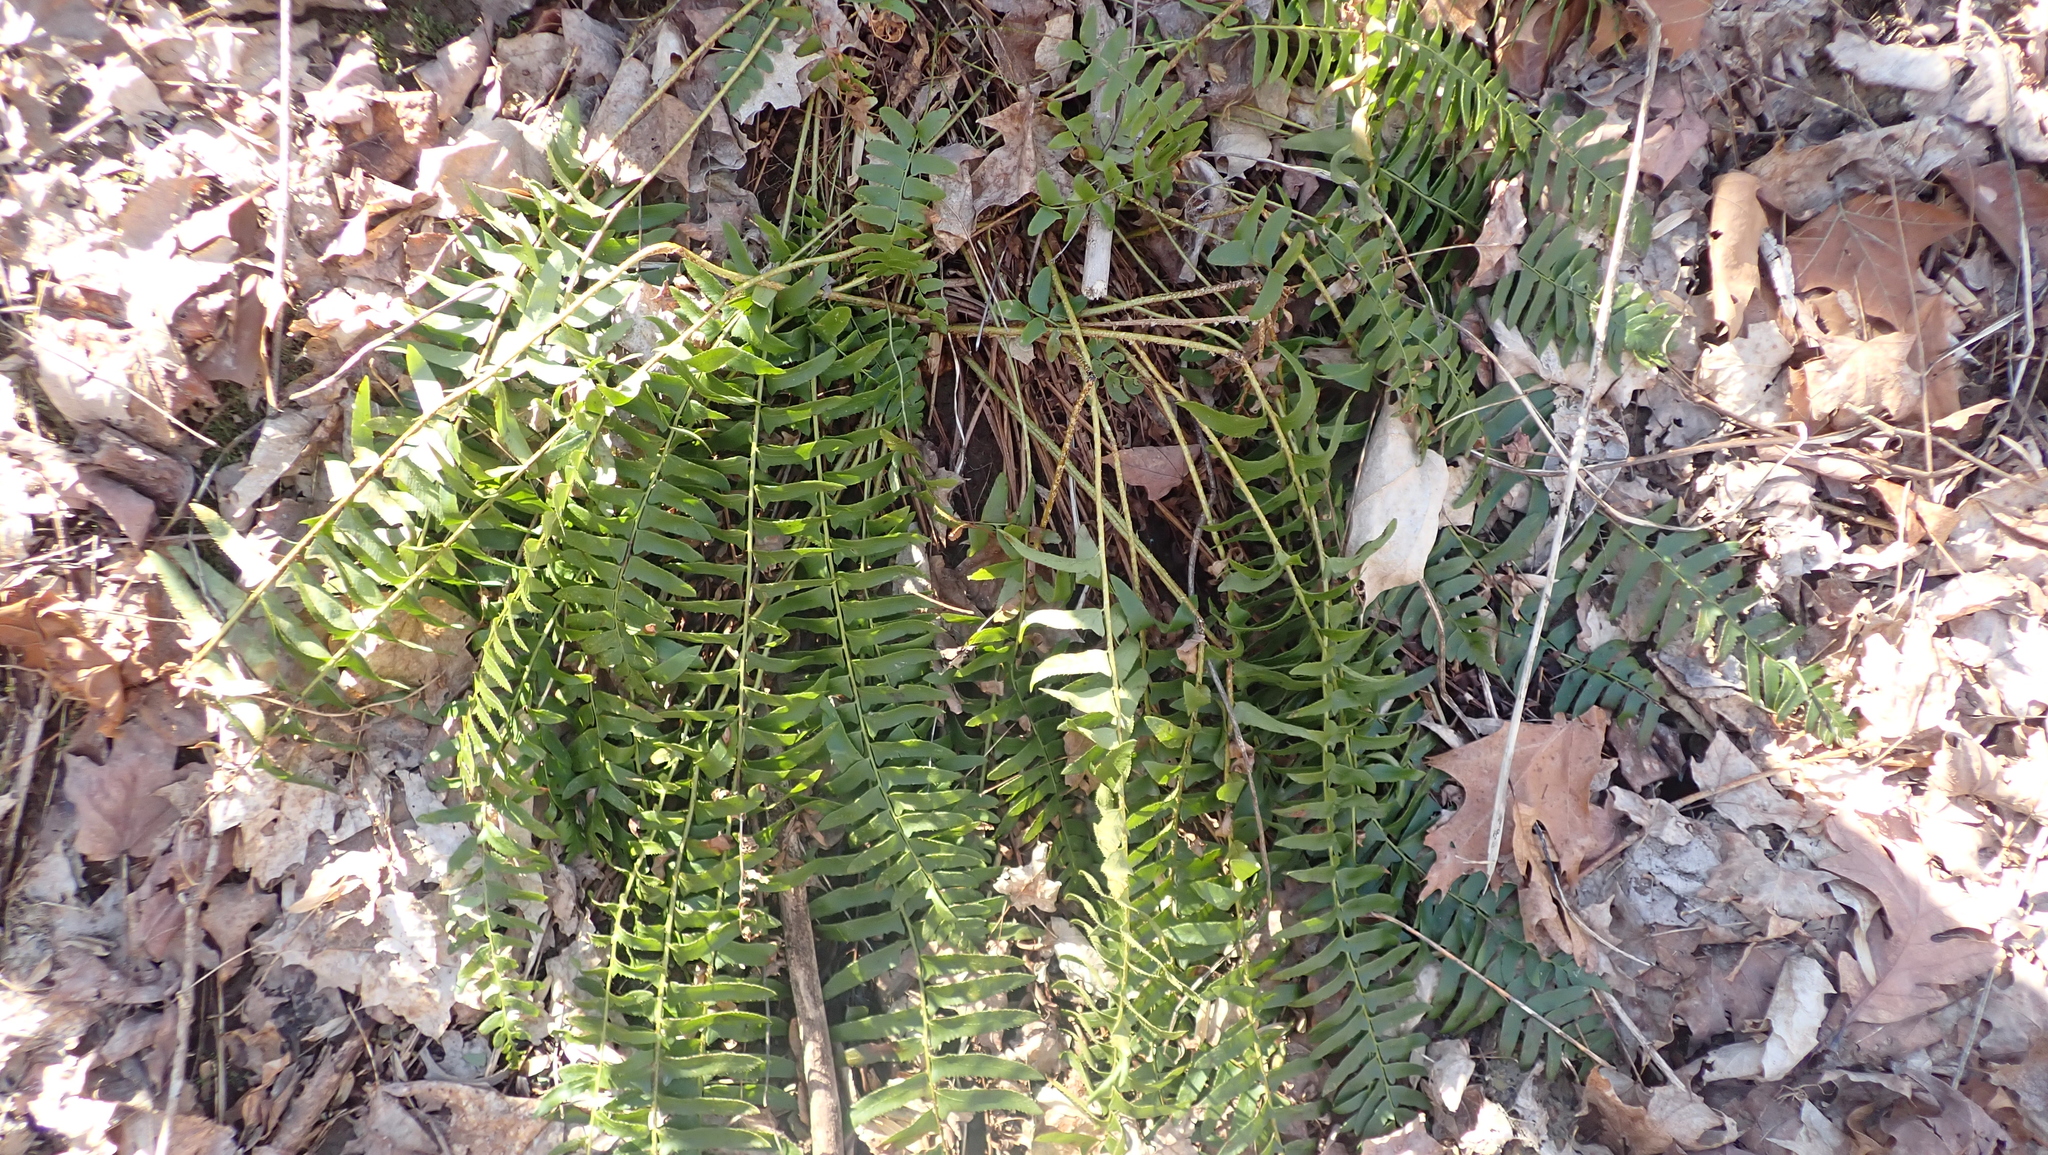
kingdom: Plantae
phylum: Tracheophyta
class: Polypodiopsida
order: Polypodiales
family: Dryopteridaceae
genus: Polystichum
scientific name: Polystichum acrostichoides
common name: Christmas fern
